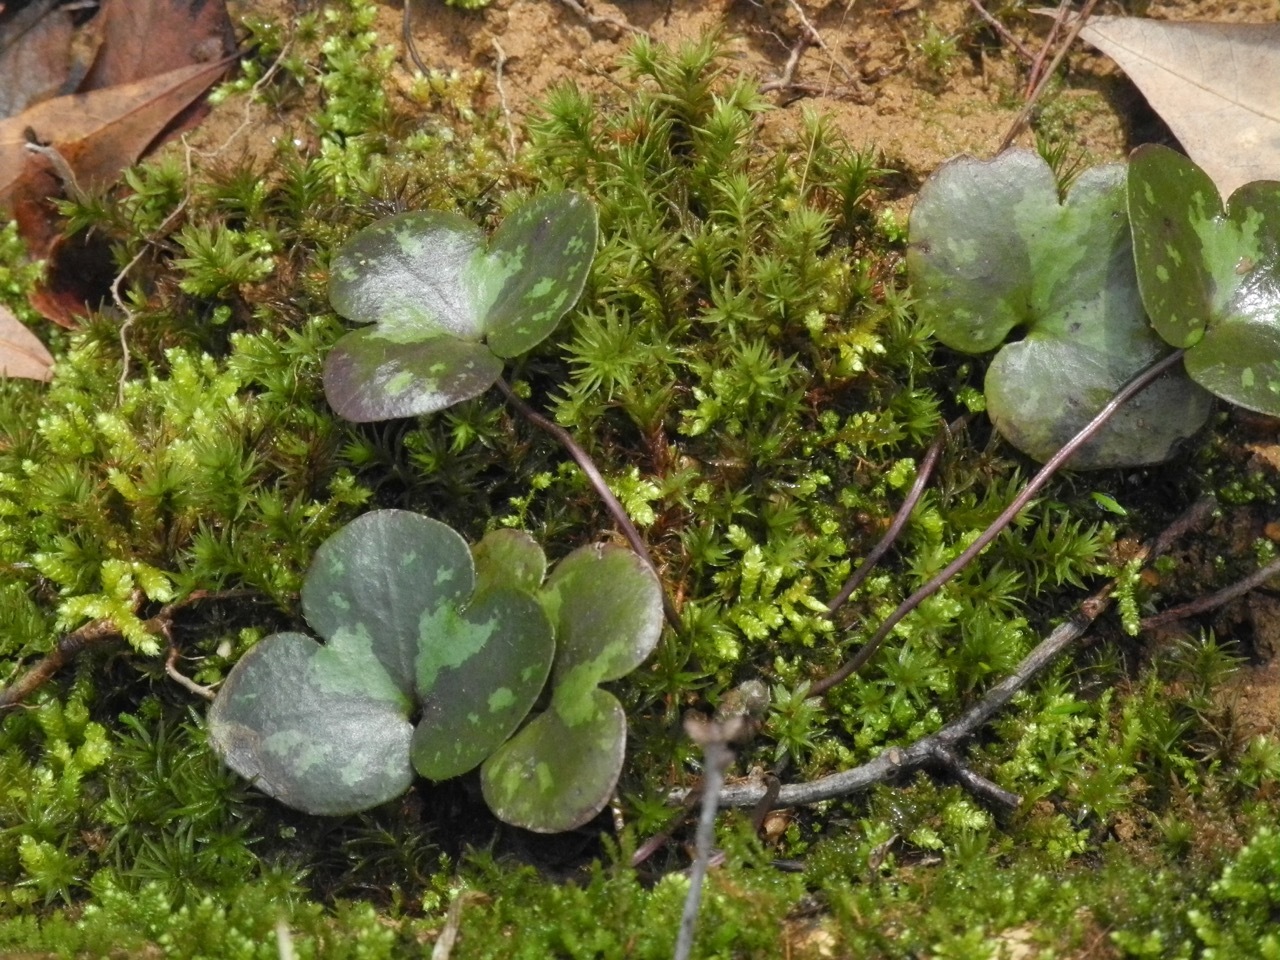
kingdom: Plantae
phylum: Tracheophyta
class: Magnoliopsida
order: Ranunculales
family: Ranunculaceae
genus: Hepatica
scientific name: Hepatica americana
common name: American hepatica
